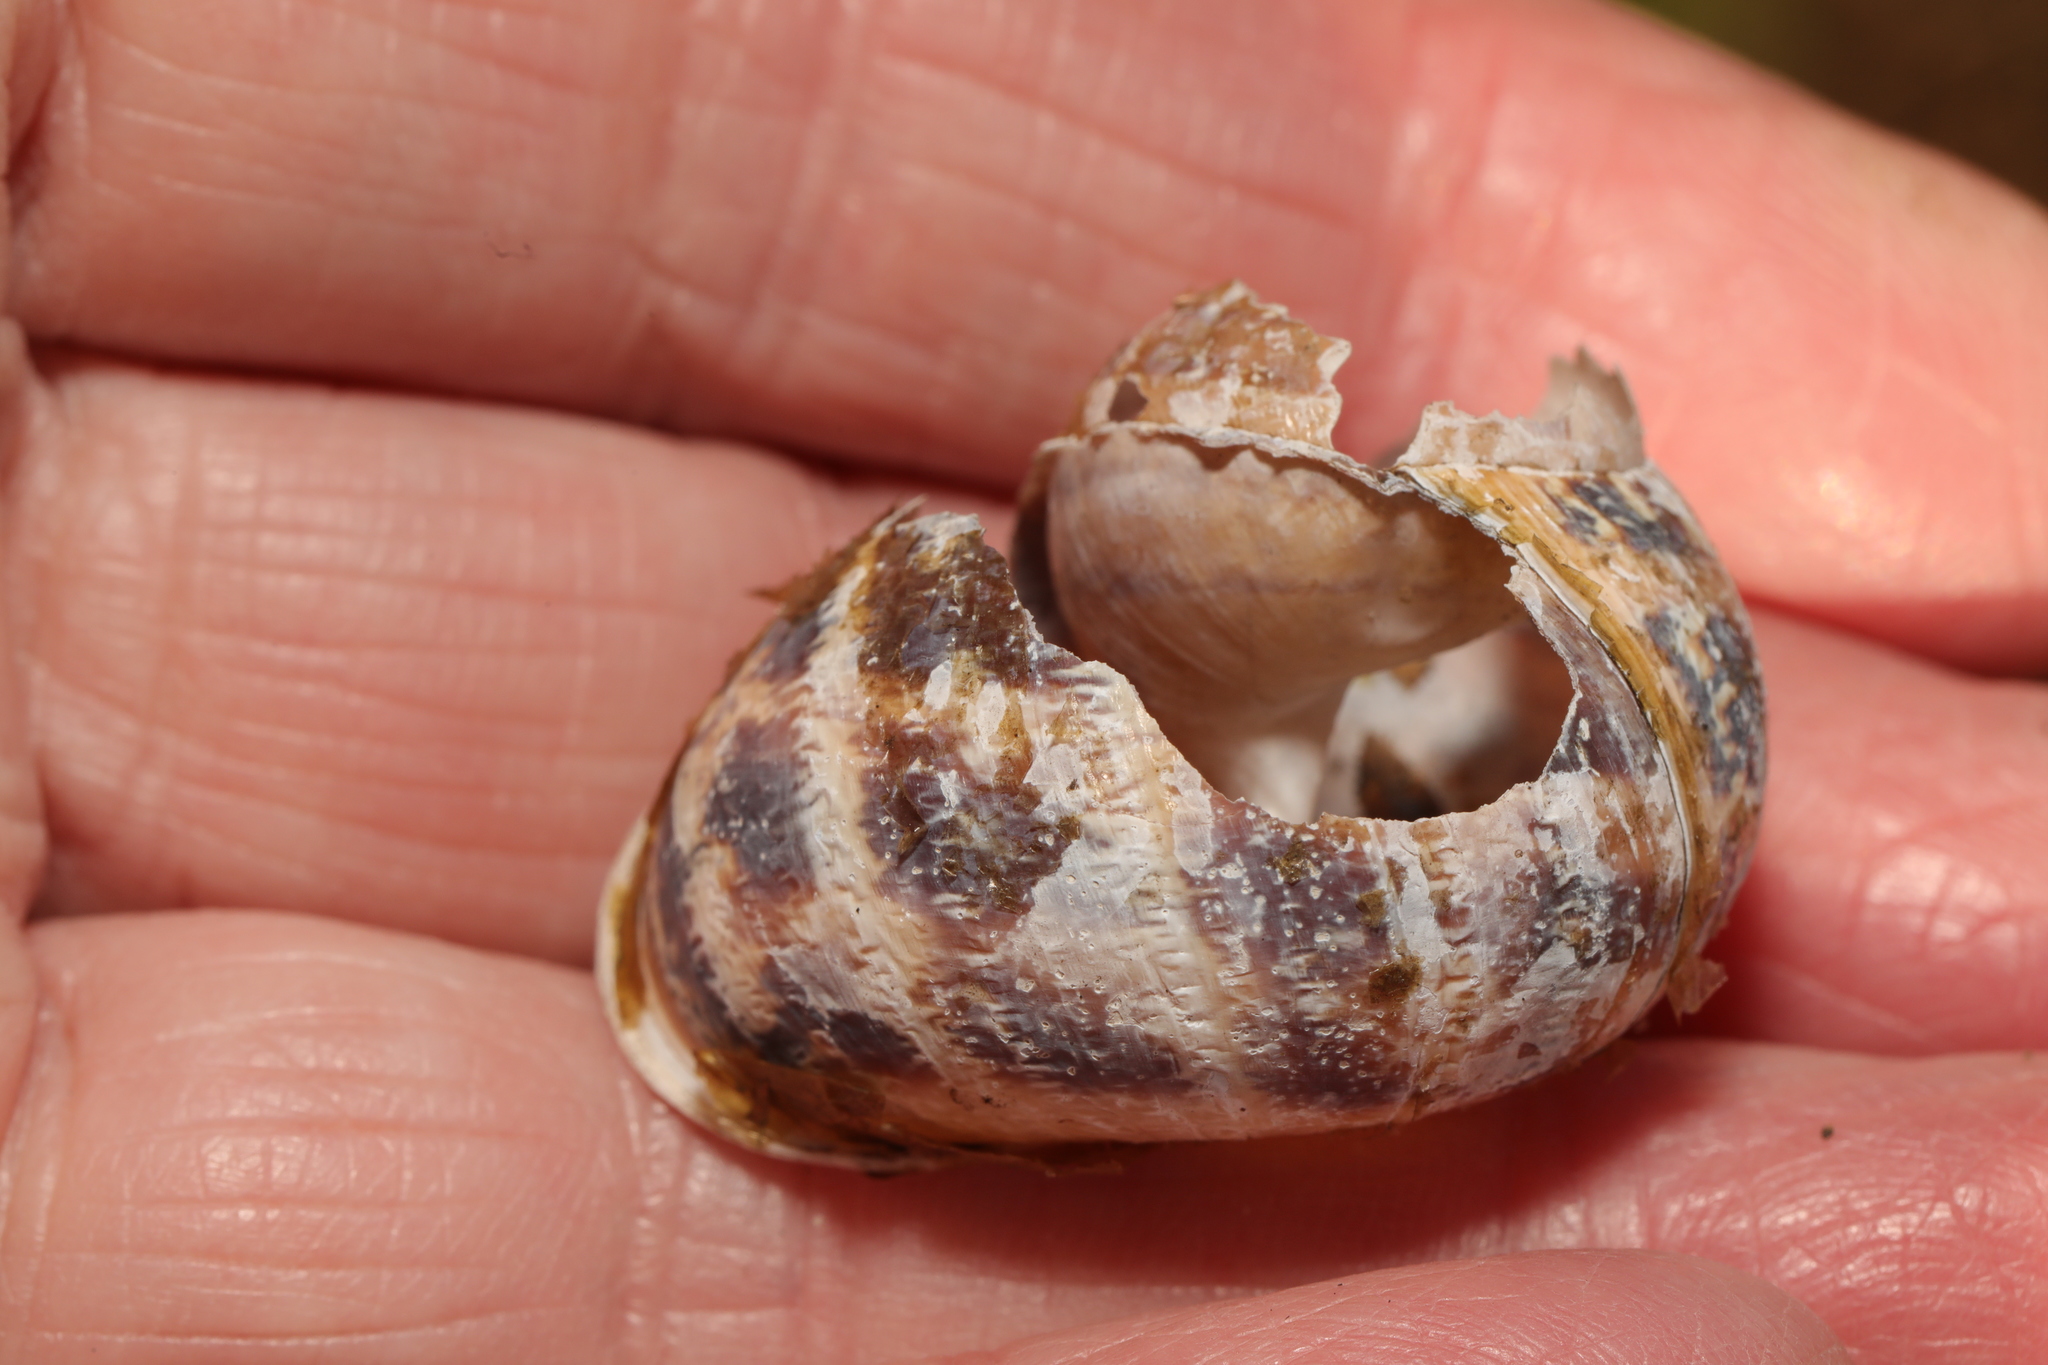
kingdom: Animalia
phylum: Mollusca
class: Gastropoda
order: Stylommatophora
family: Helicidae
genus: Cornu
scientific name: Cornu aspersum
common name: Brown garden snail
